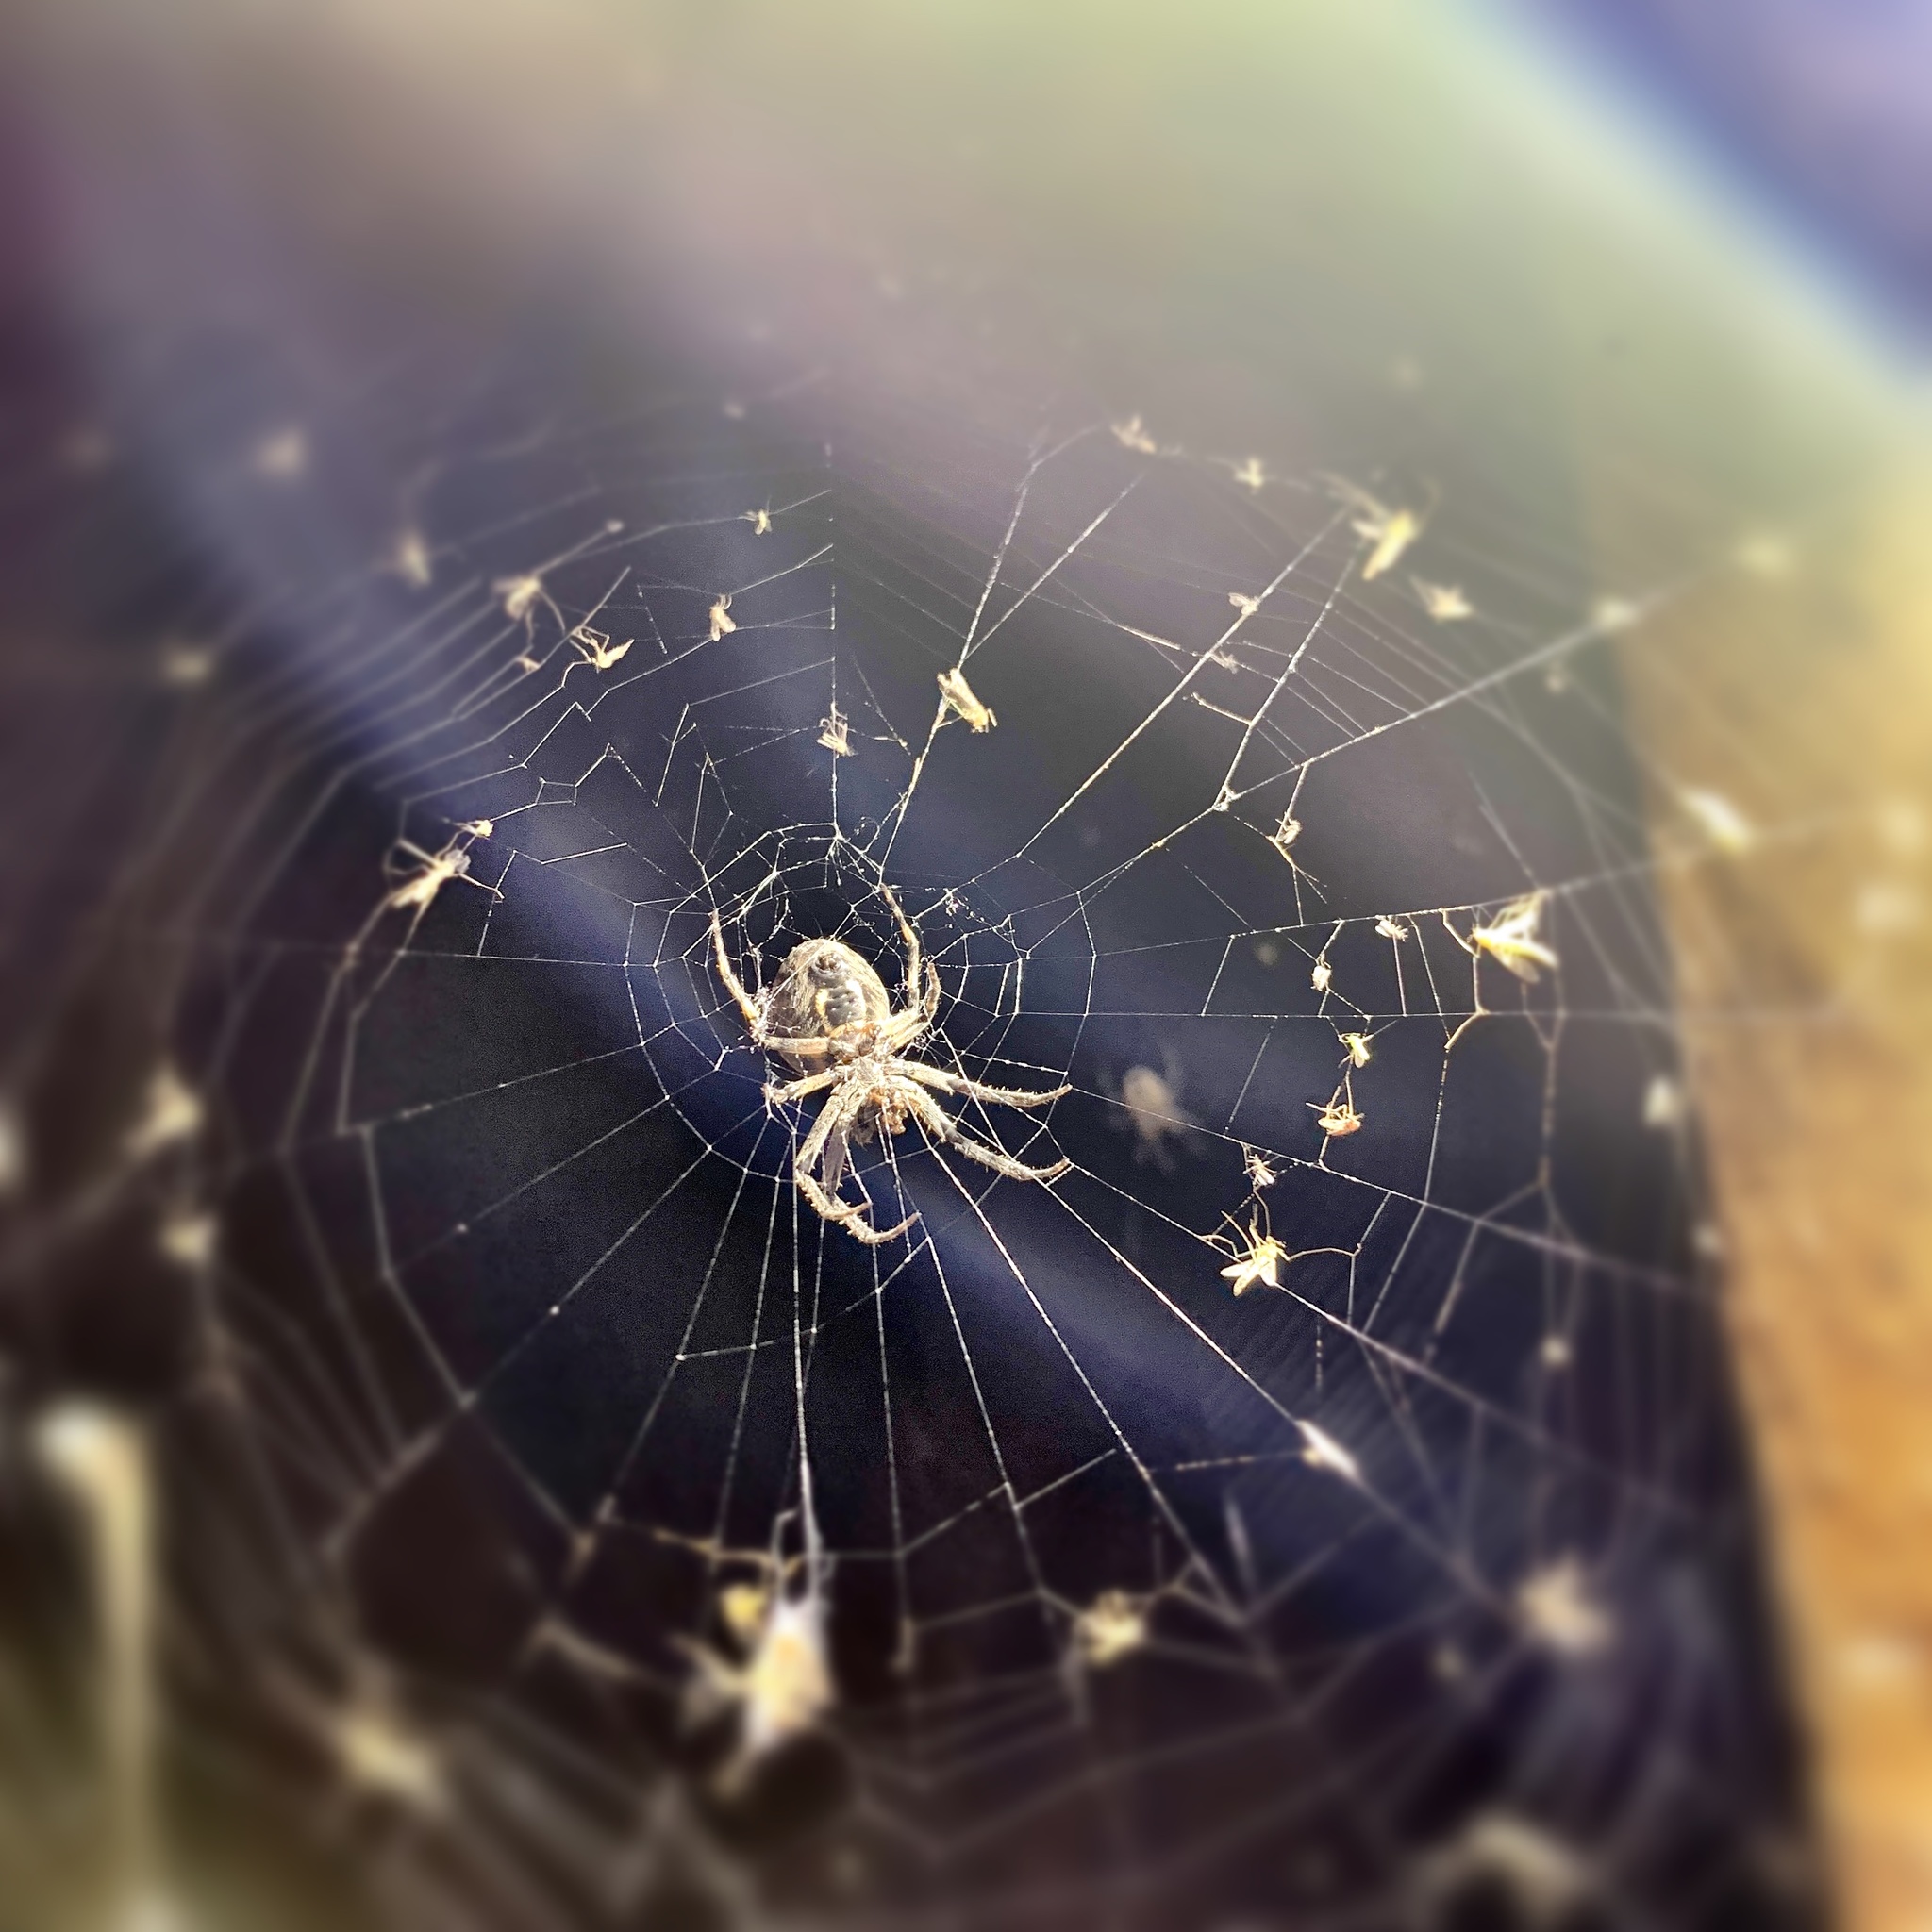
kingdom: Animalia
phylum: Arthropoda
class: Arachnida
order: Araneae
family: Araneidae
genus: Larinioides
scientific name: Larinioides sclopetarius
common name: Bridge orbweaver
